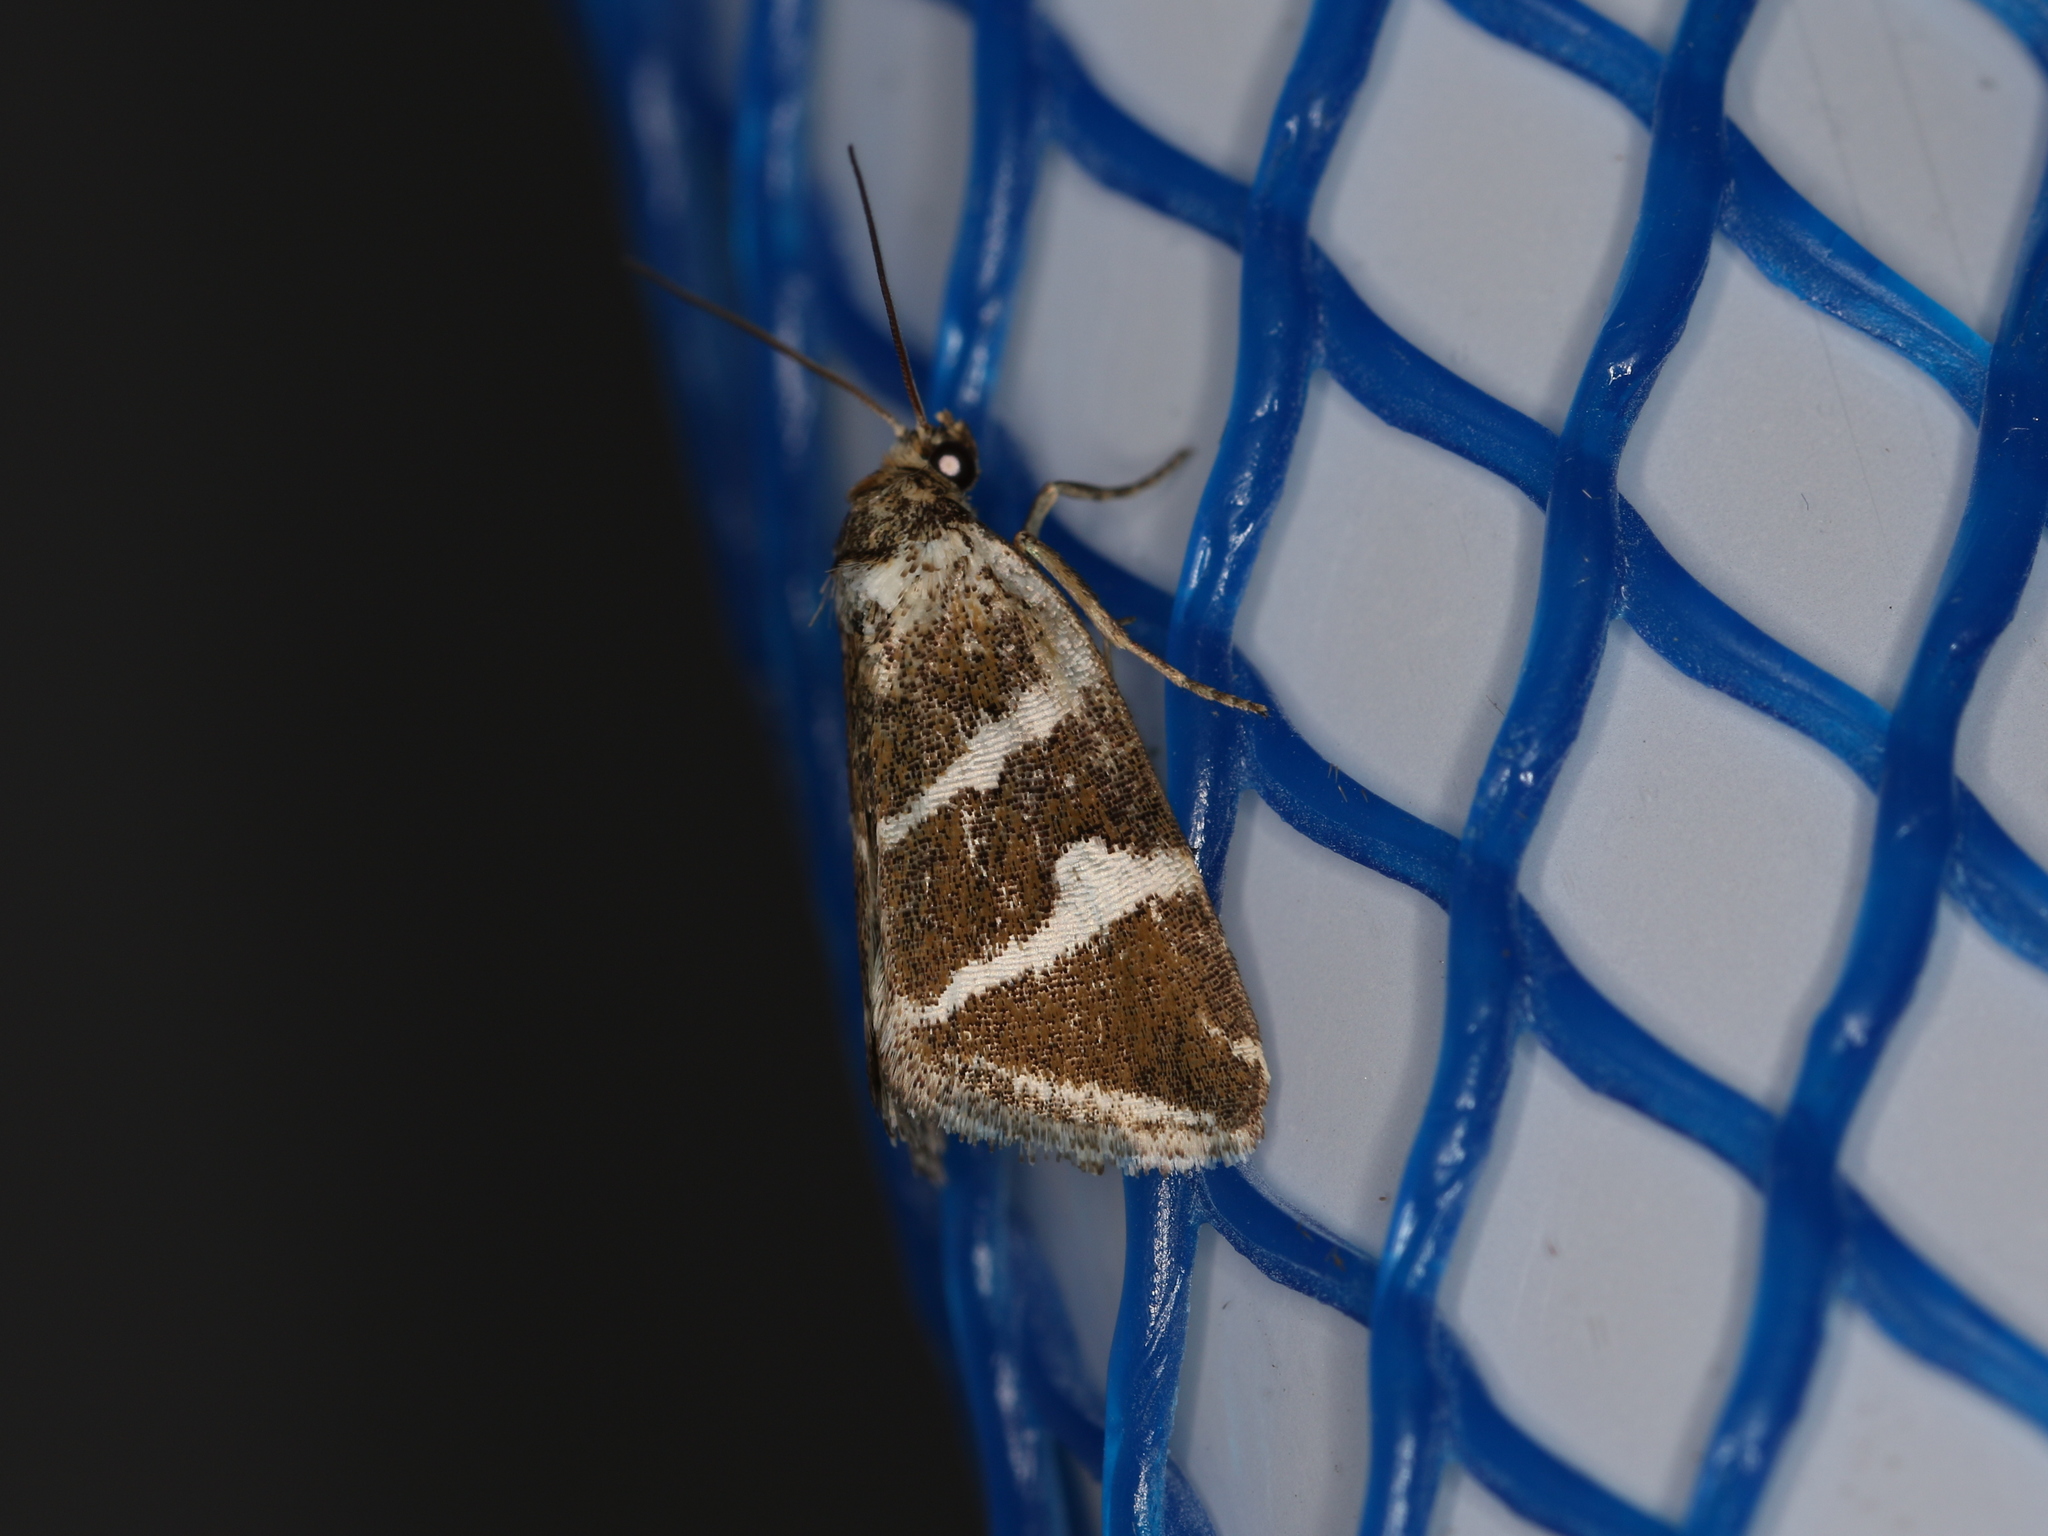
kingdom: Animalia
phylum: Arthropoda
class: Insecta
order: Lepidoptera
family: Noctuidae
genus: Deltote
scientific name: Deltote bankiana
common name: Silver barred
